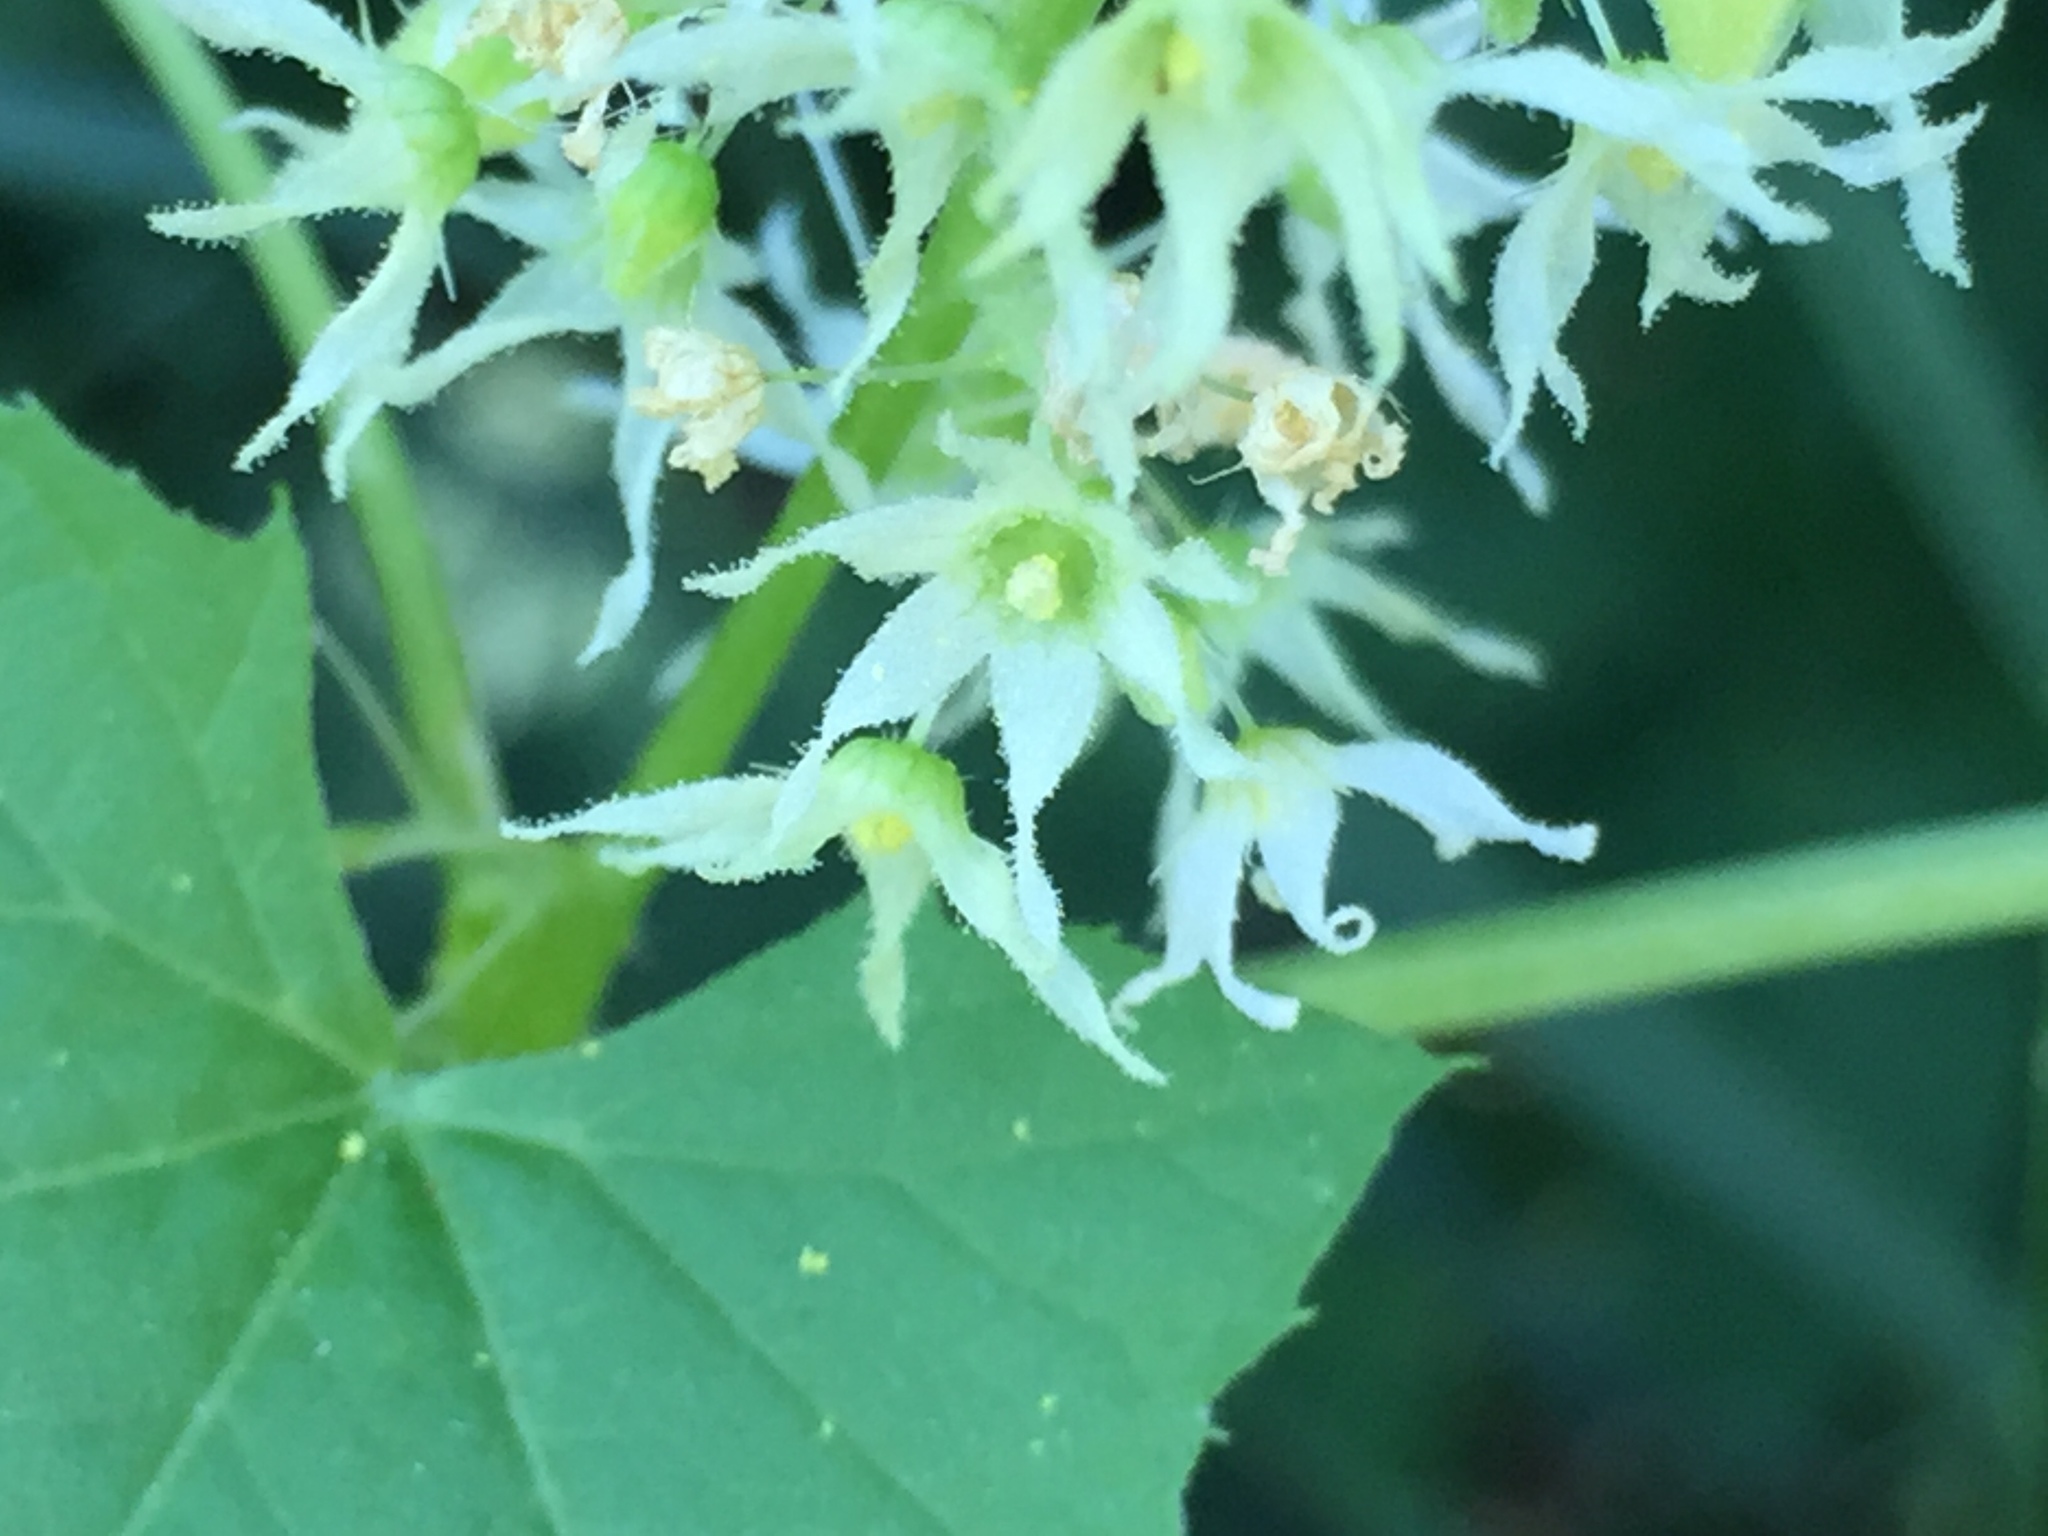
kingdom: Plantae
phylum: Tracheophyta
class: Magnoliopsida
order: Cucurbitales
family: Cucurbitaceae
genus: Echinocystis
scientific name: Echinocystis lobata
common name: Wild cucumber
